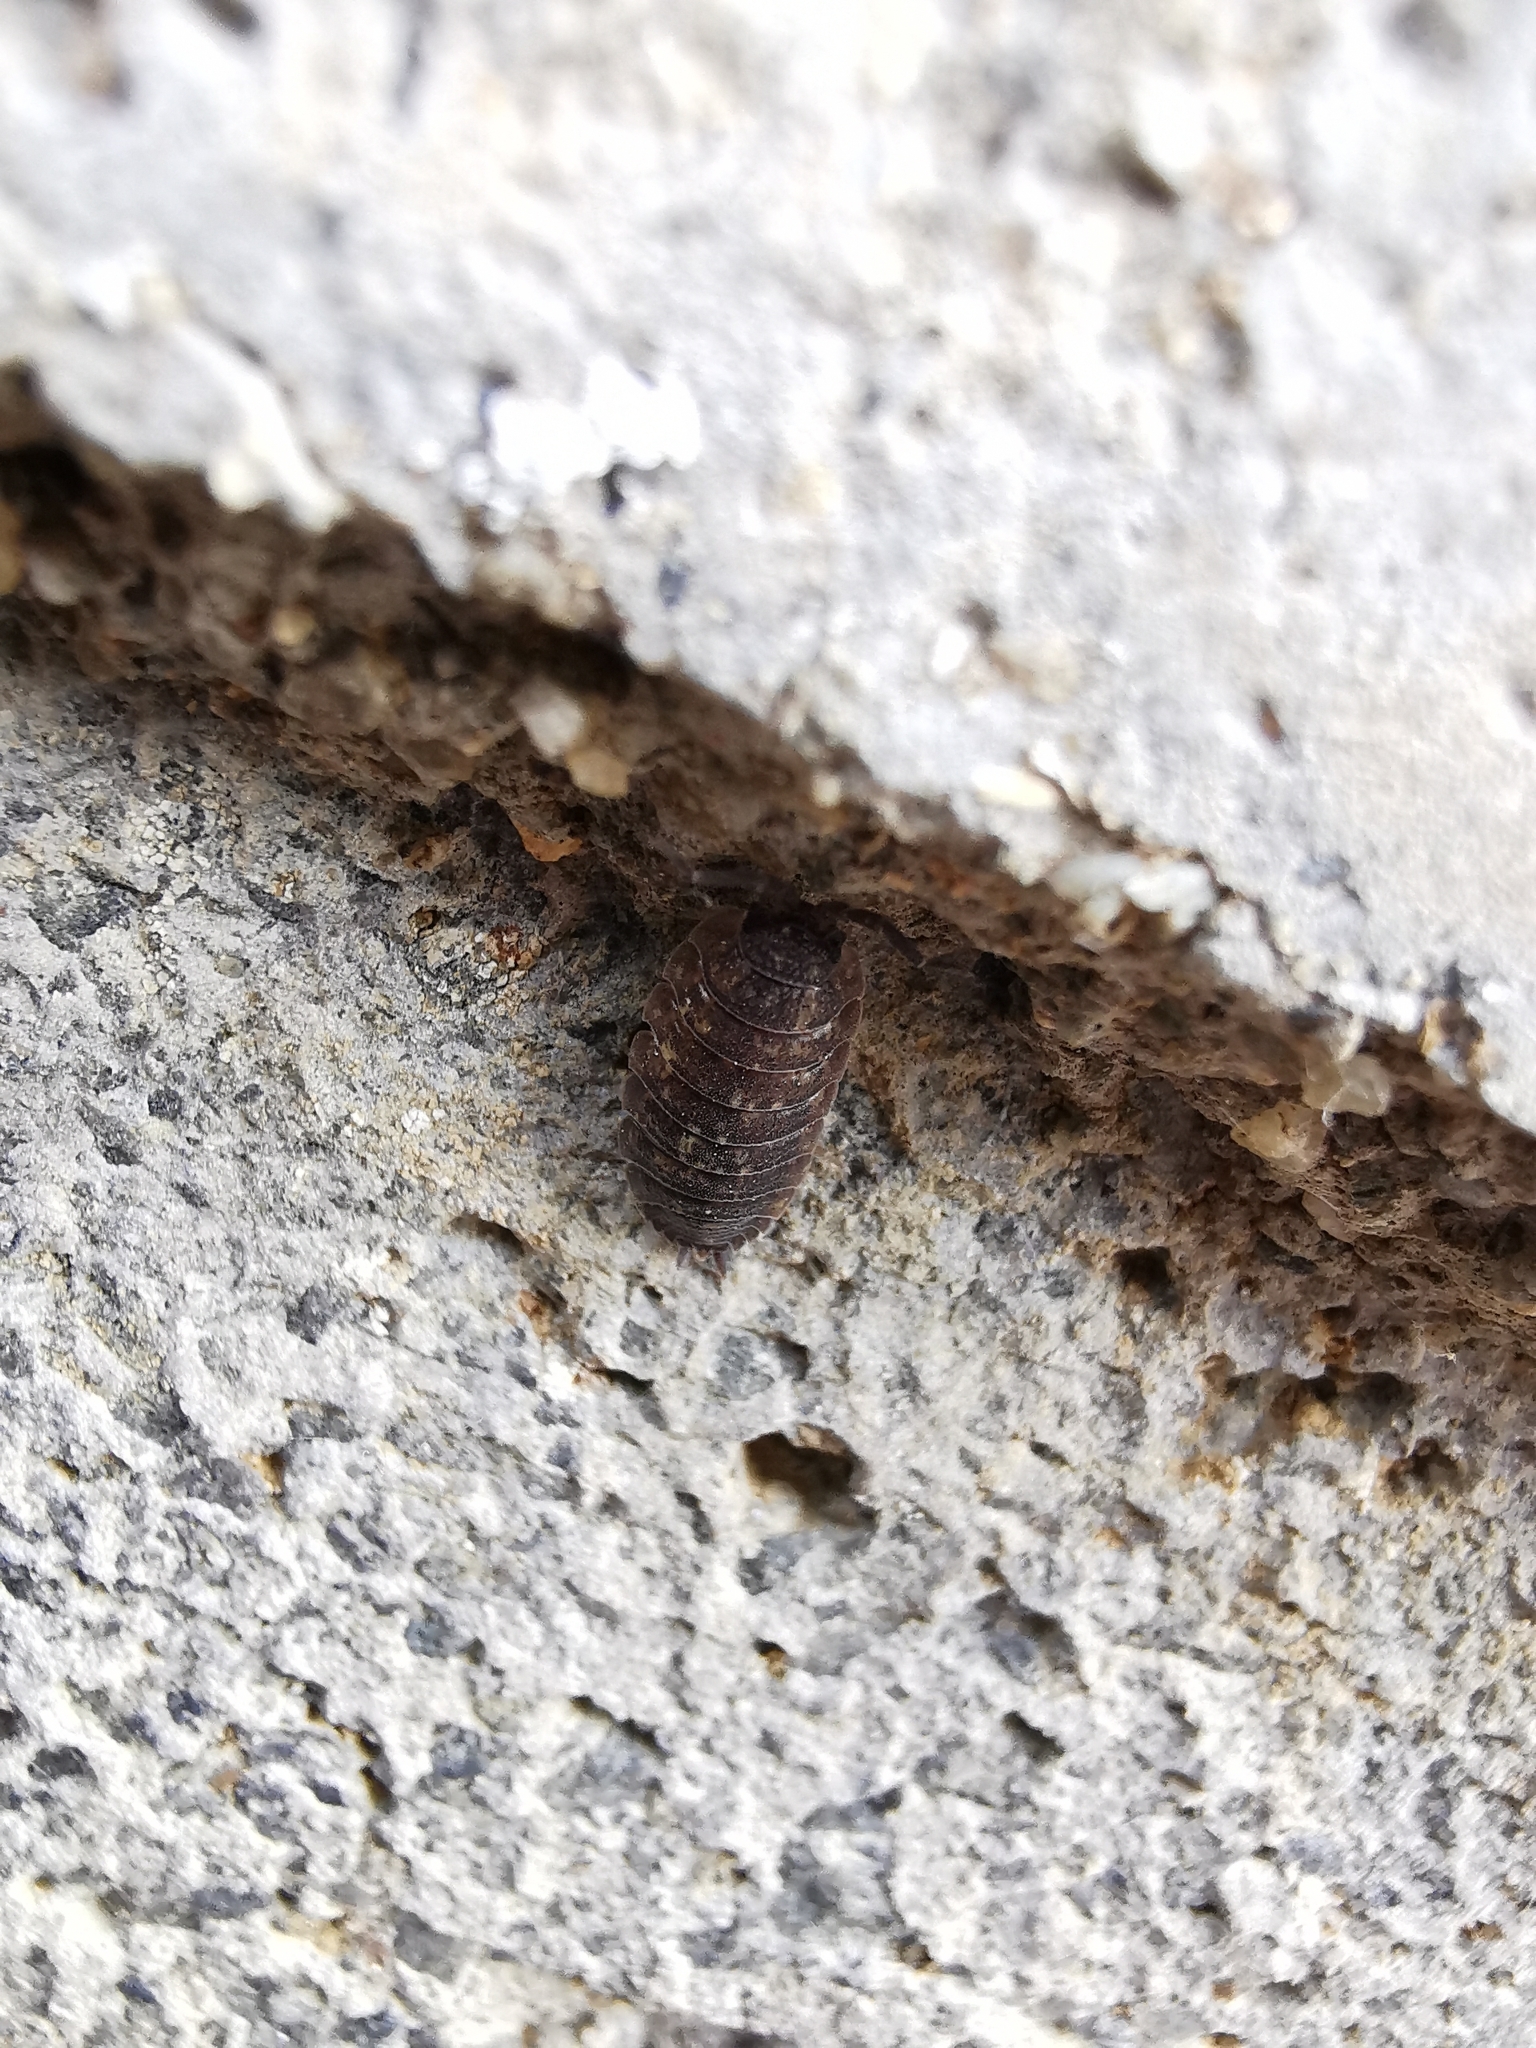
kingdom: Animalia
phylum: Arthropoda
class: Malacostraca
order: Isopoda
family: Porcellionidae
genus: Porcellio
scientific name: Porcellio scaber
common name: Common rough woodlouse
